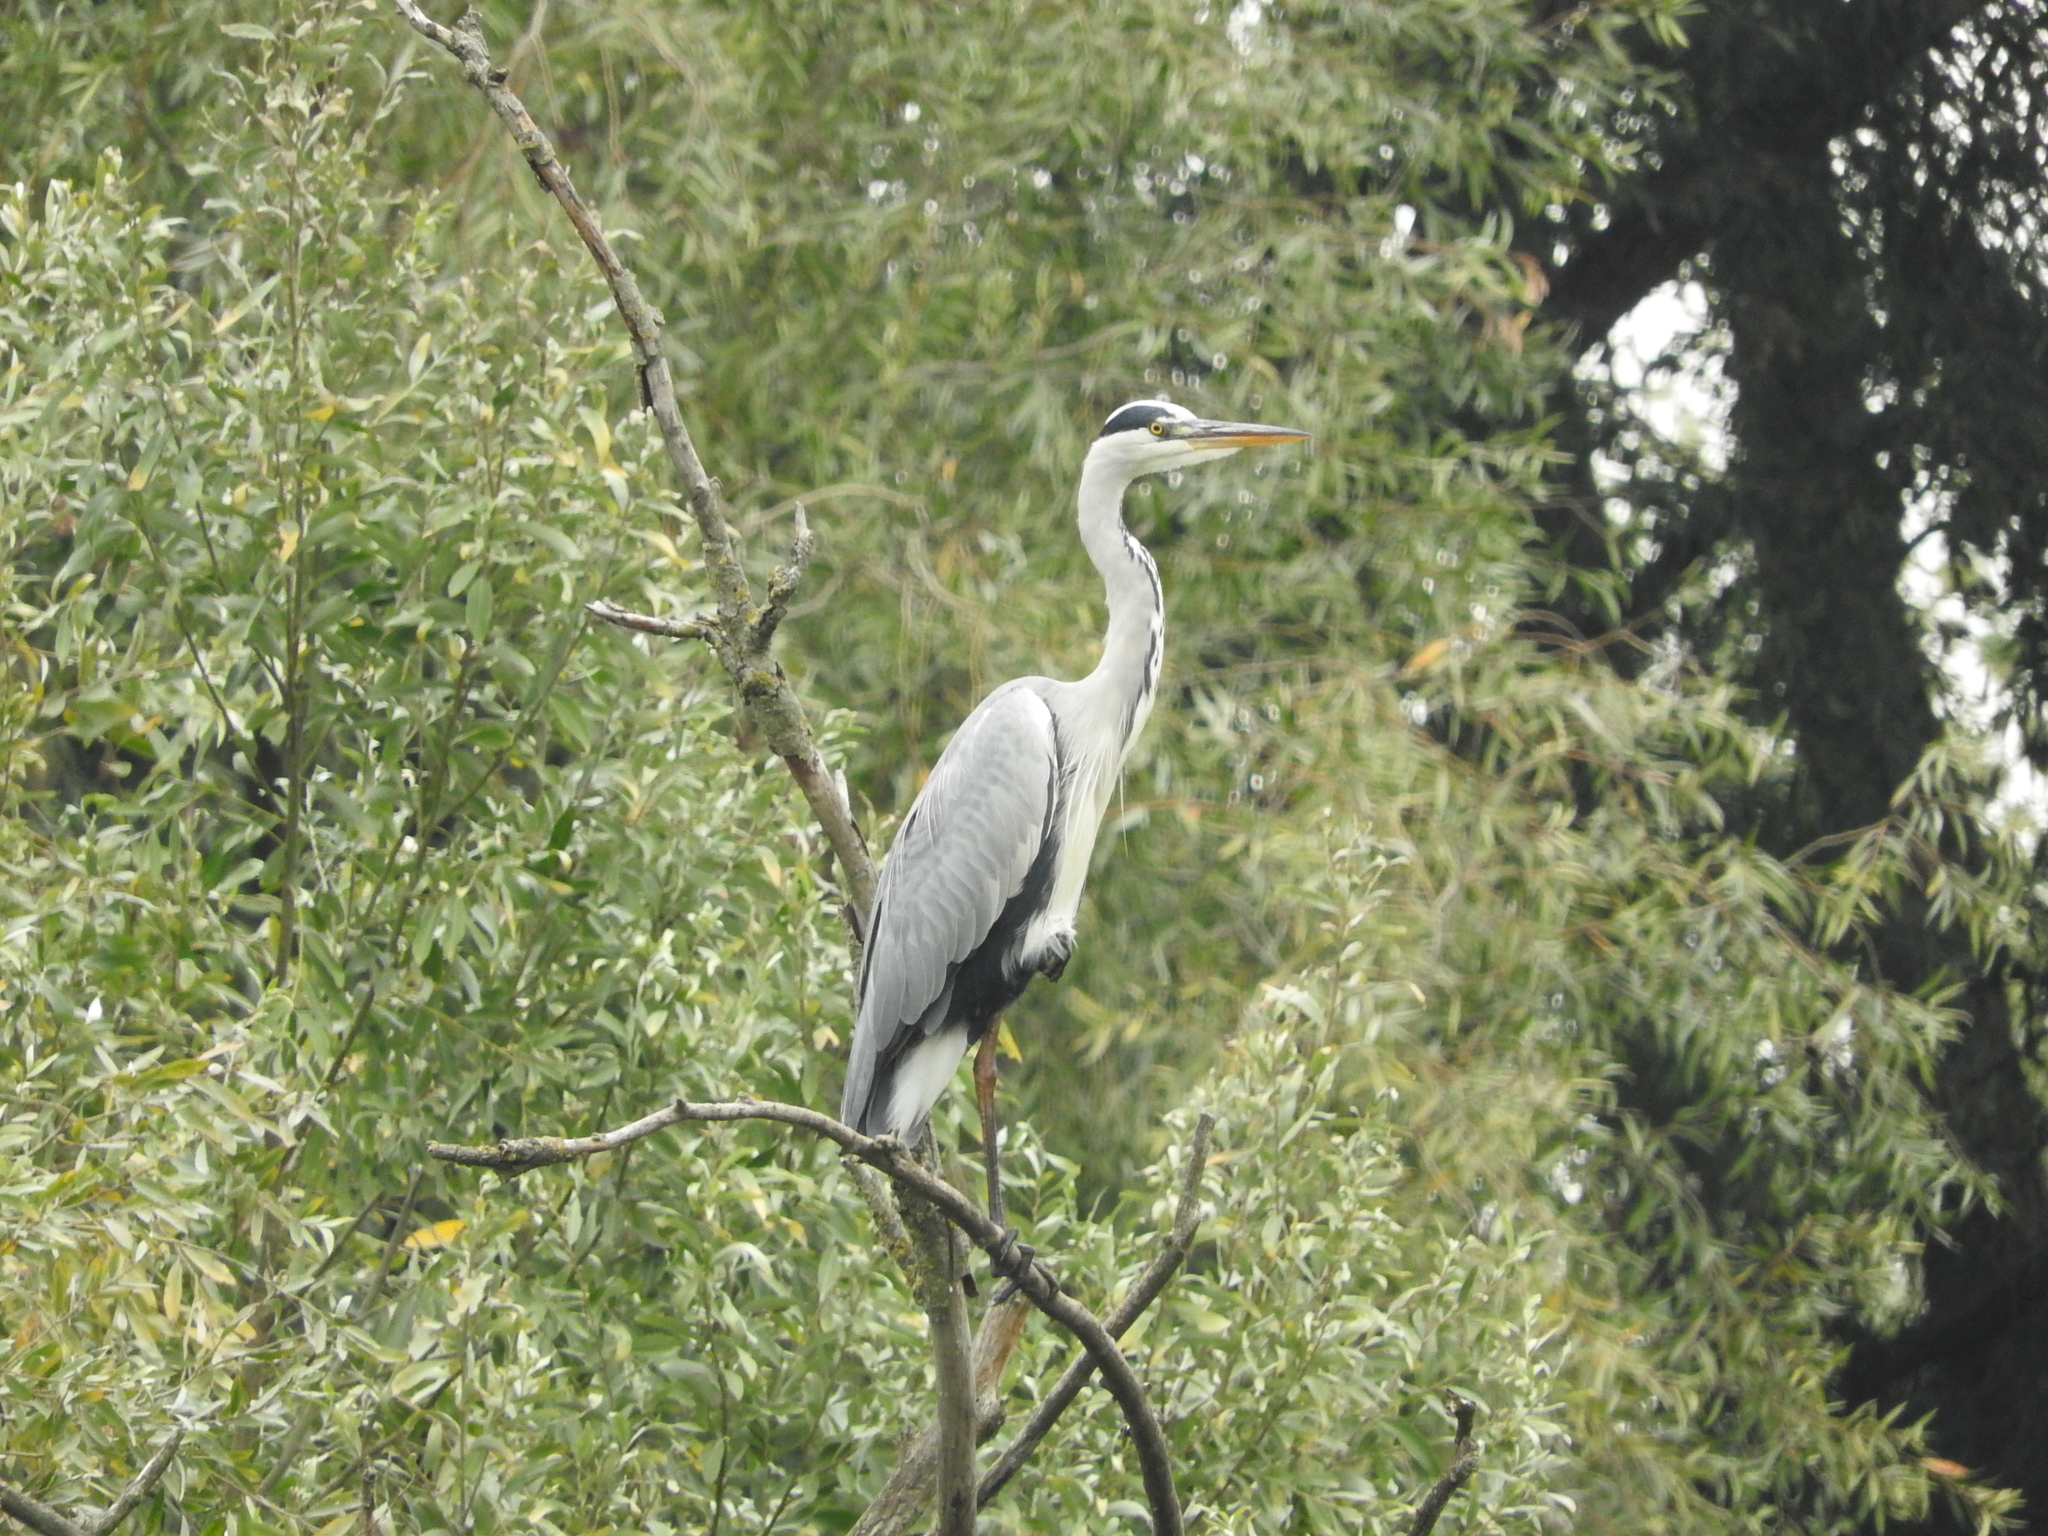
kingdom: Animalia
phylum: Chordata
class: Aves
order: Pelecaniformes
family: Ardeidae
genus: Ardea
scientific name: Ardea cinerea
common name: Grey heron
